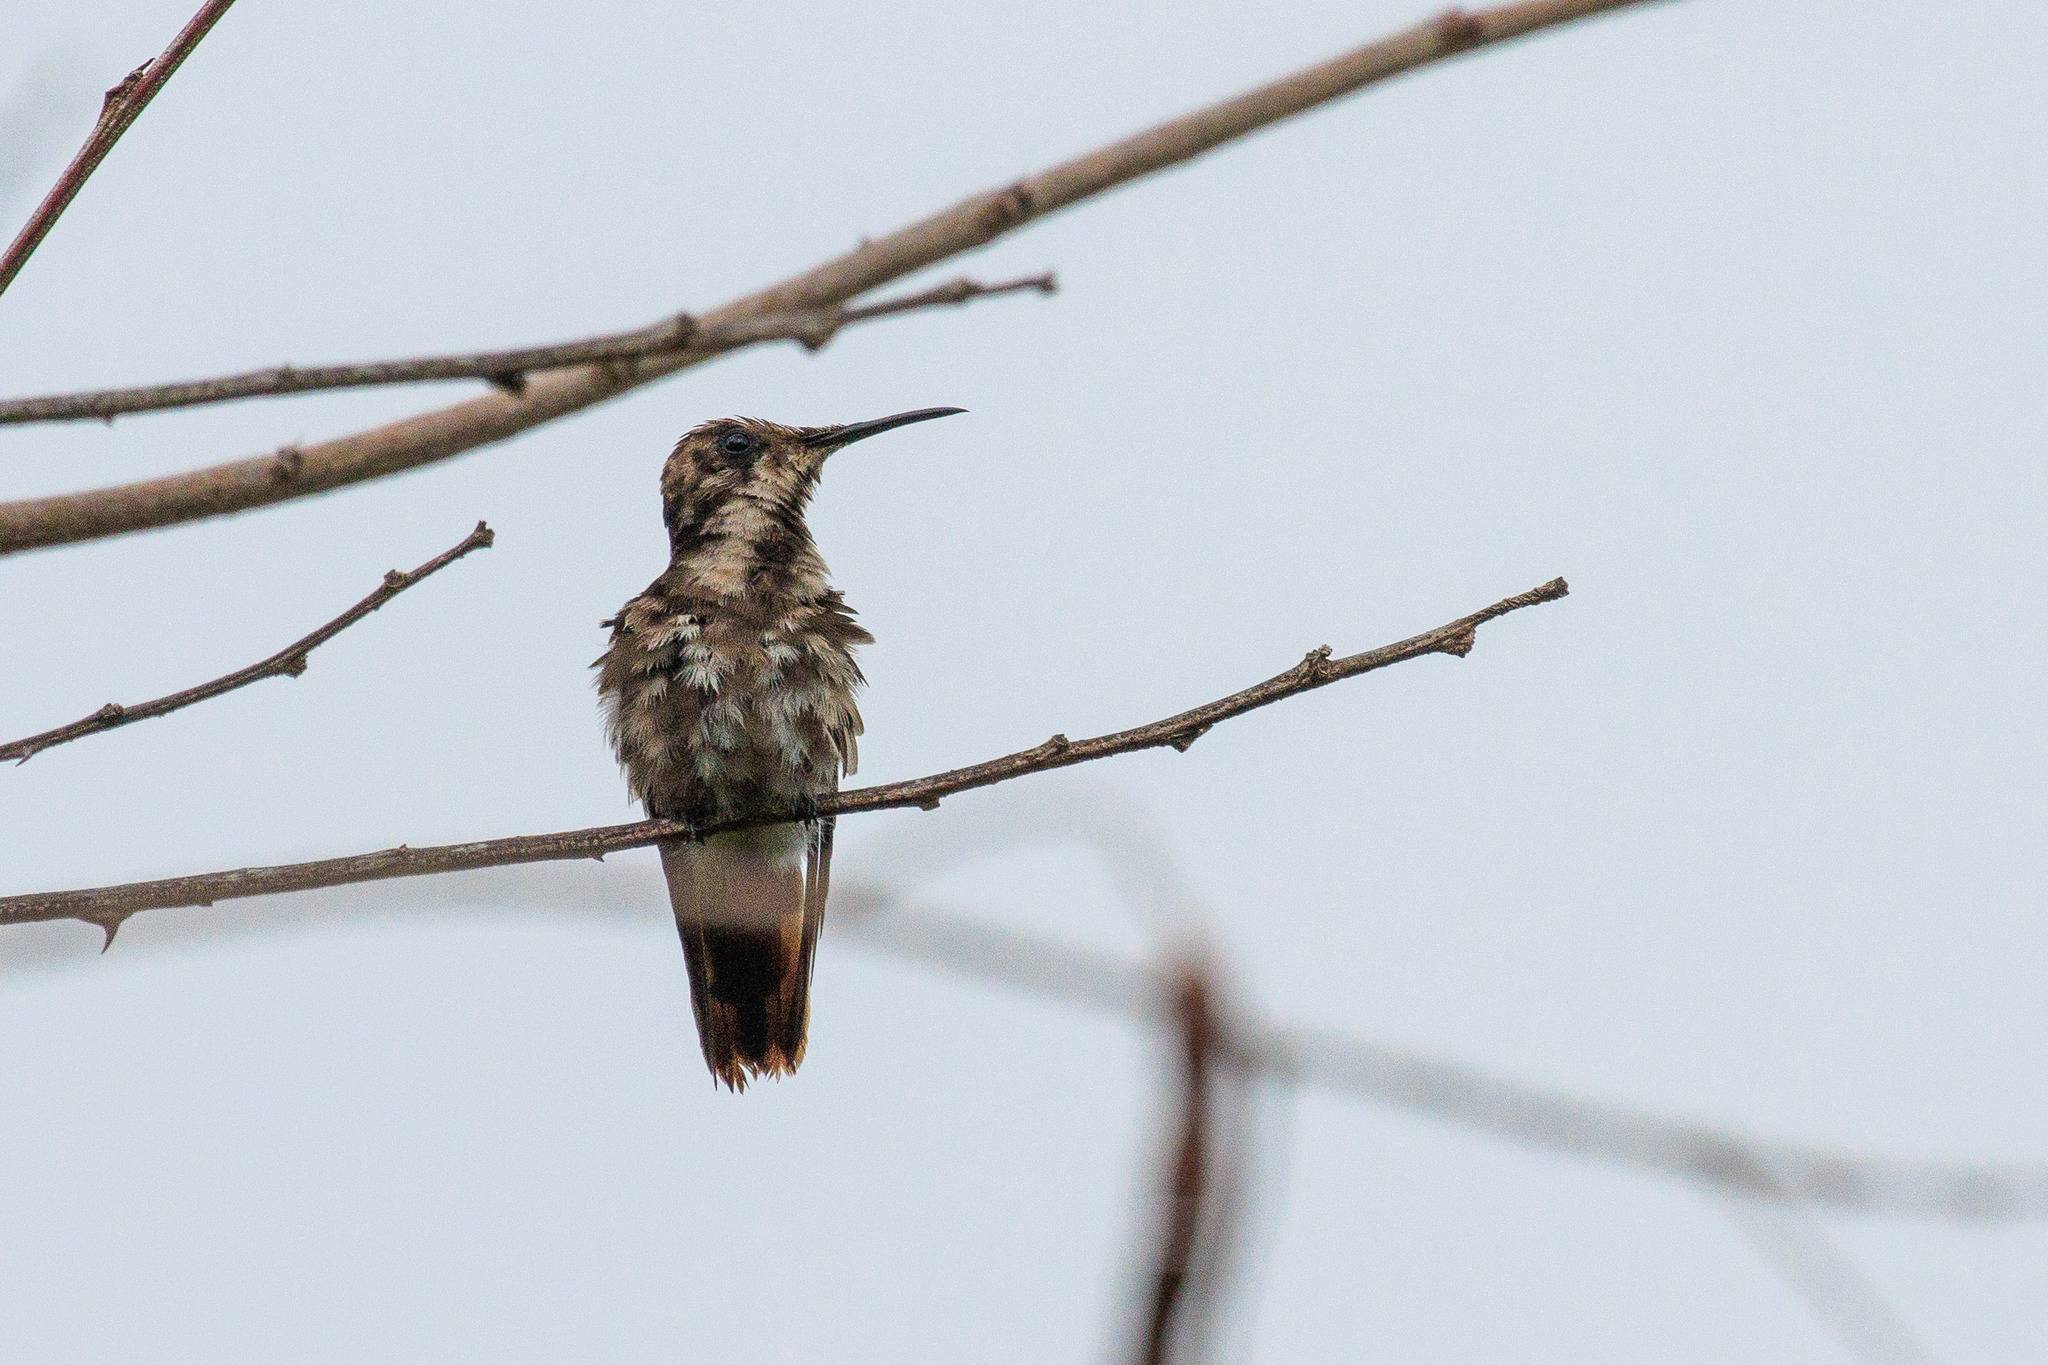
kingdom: Animalia
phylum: Chordata
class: Aves
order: Apodiformes
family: Trochilidae
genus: Chrysolampis
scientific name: Chrysolampis mosquitus
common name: Ruby-topaz hummingbird
